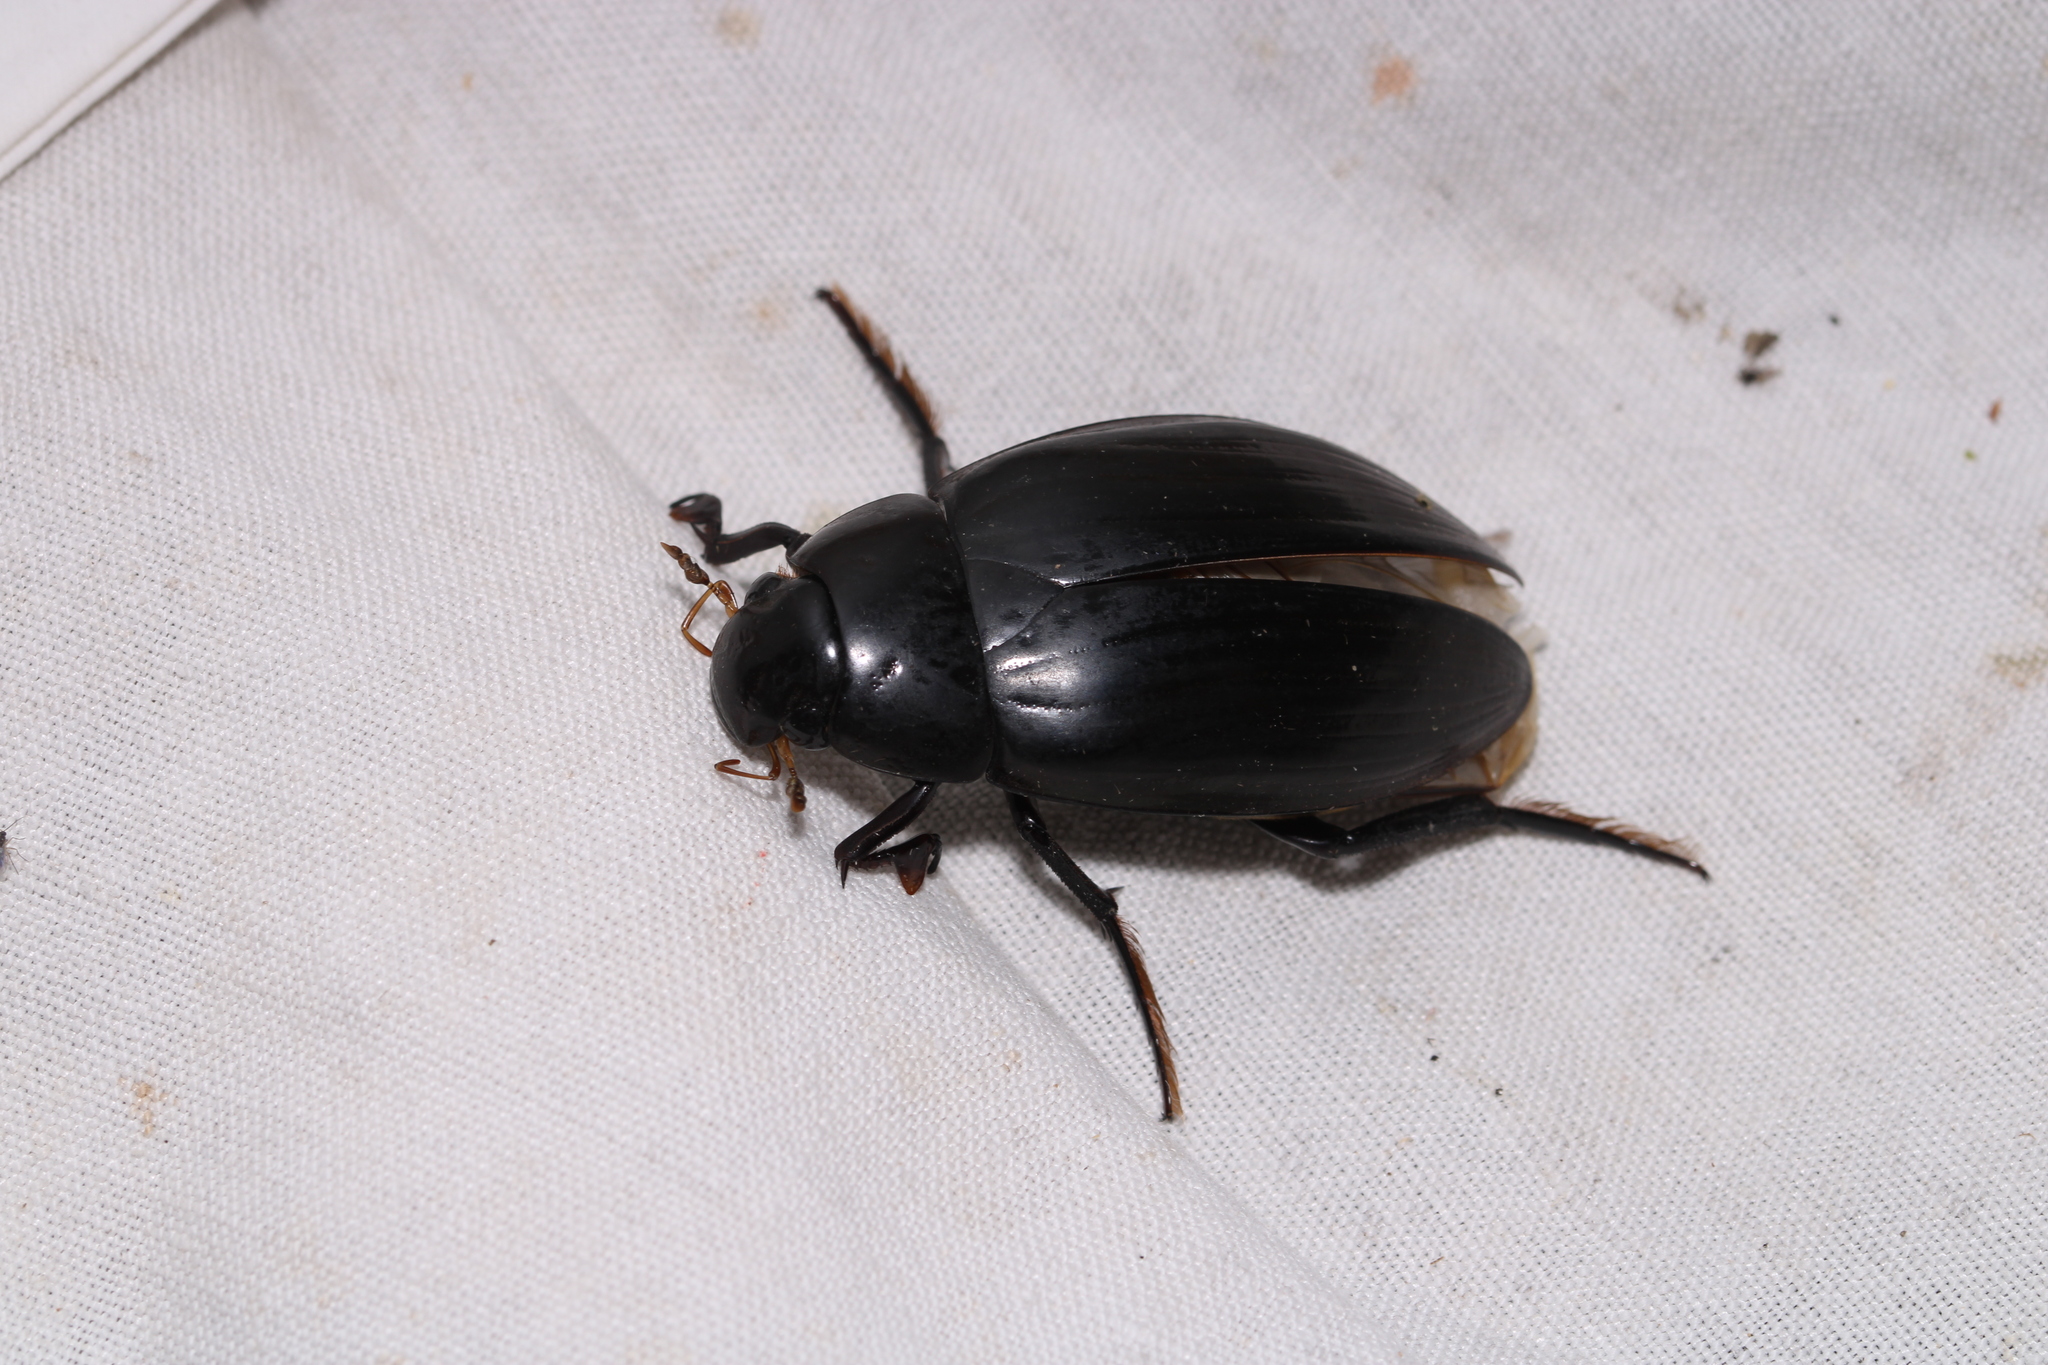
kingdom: Animalia
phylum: Arthropoda
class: Insecta
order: Coleoptera
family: Hydrophilidae
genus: Hydrophilus
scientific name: Hydrophilus piceus
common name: Great silver water beetle
